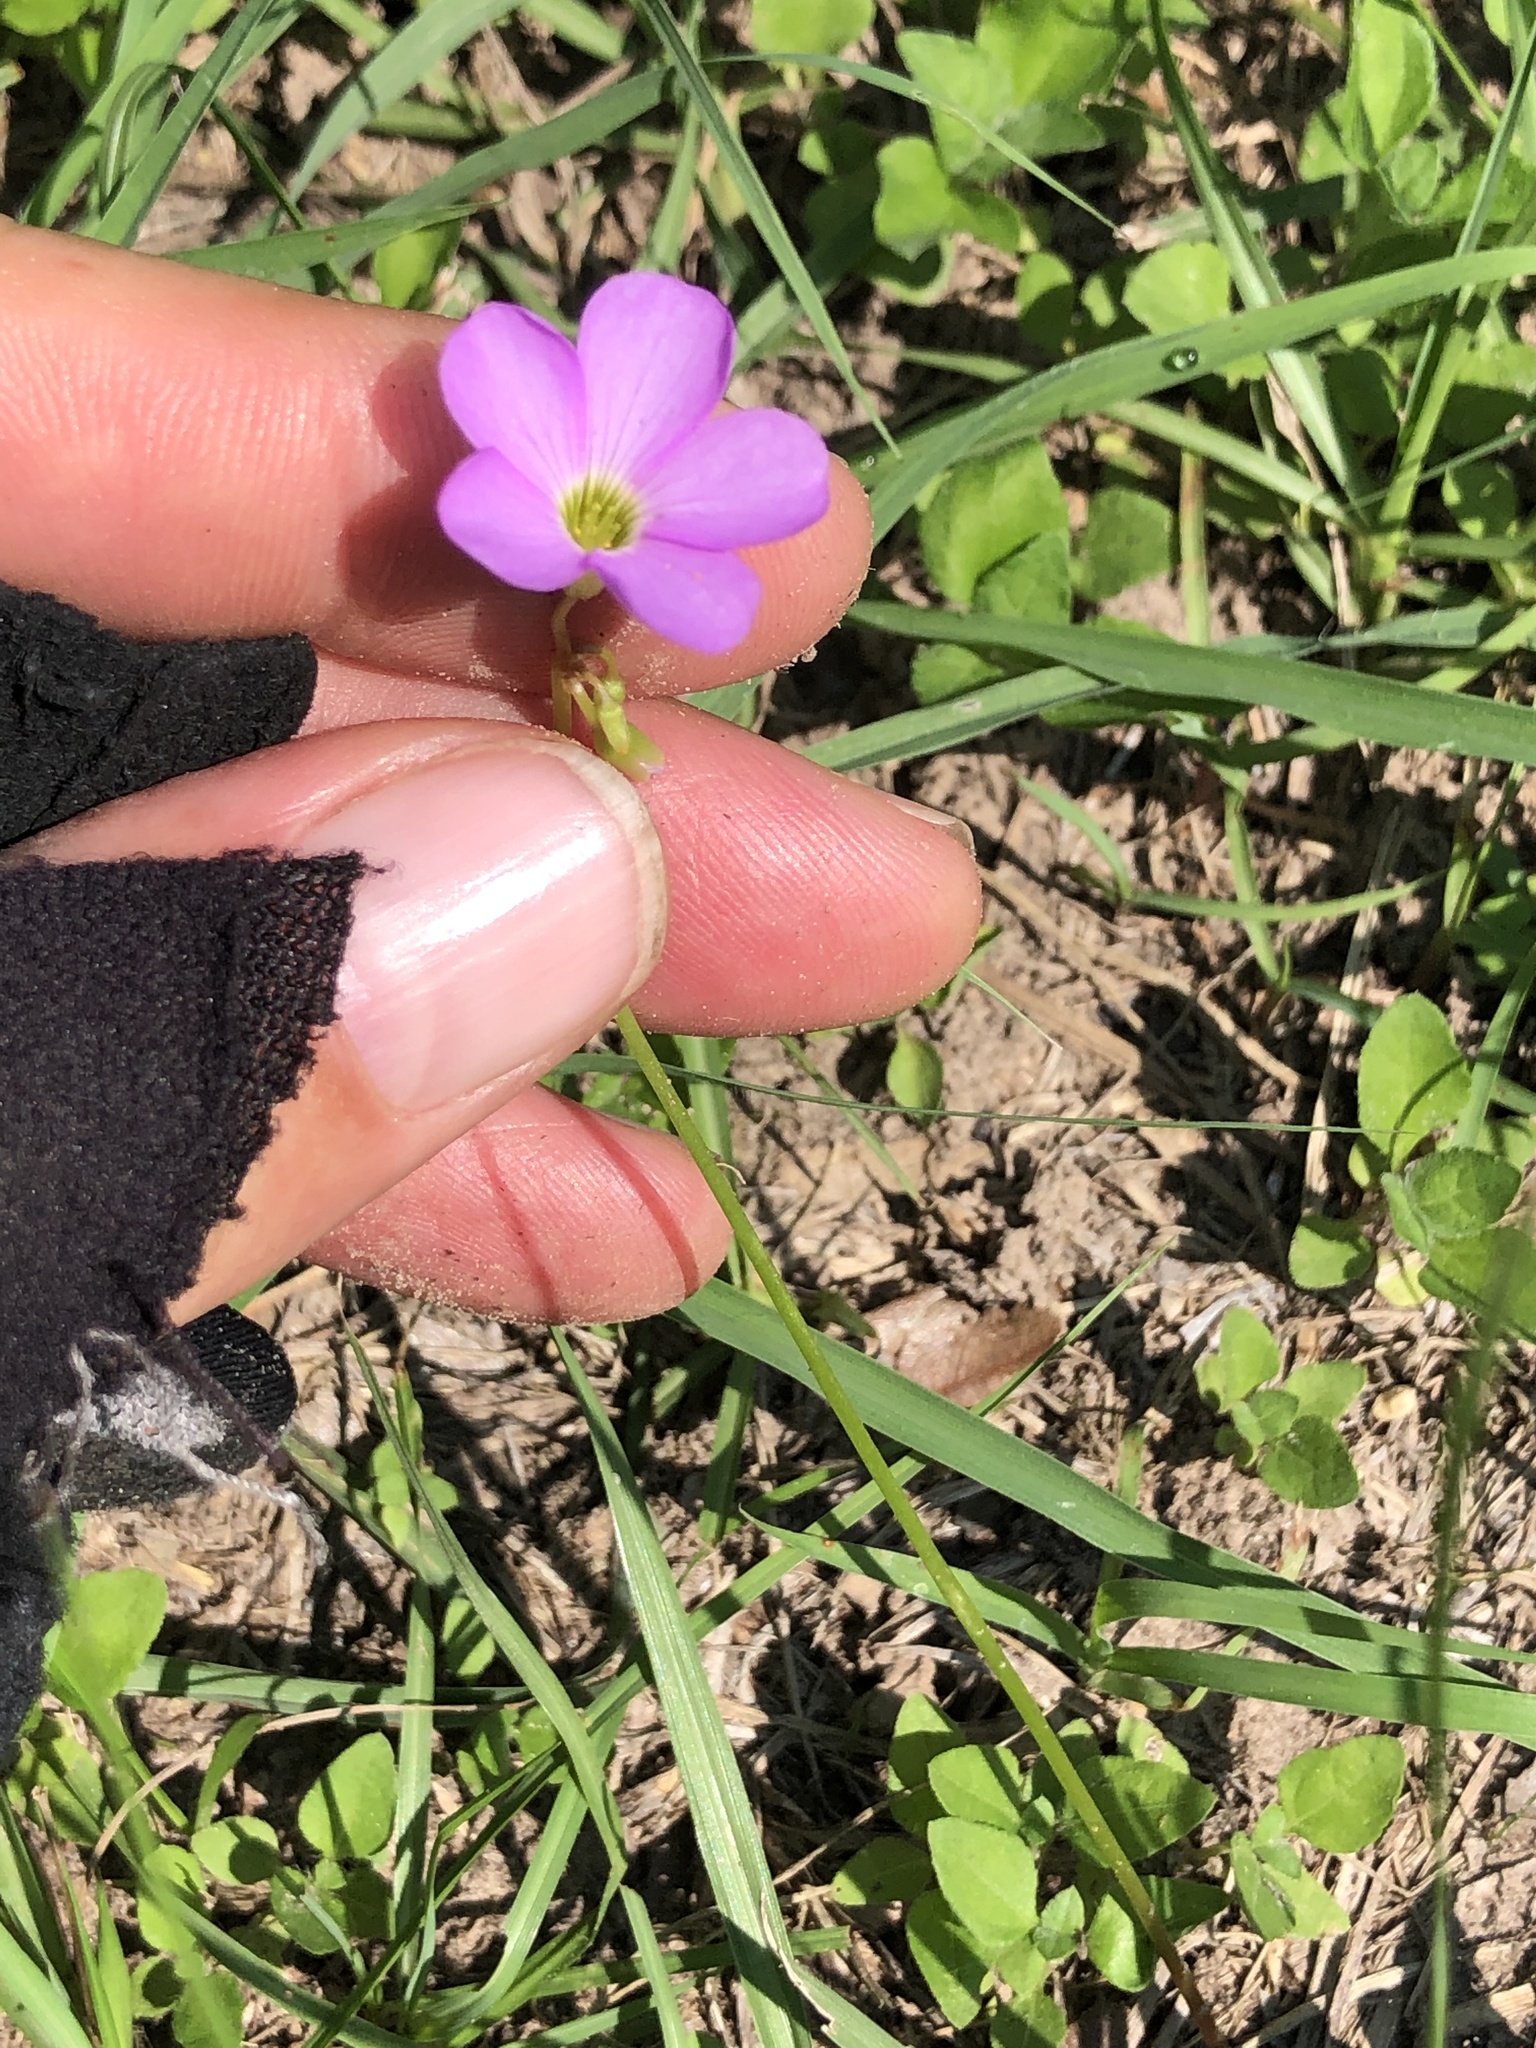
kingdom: Plantae
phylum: Tracheophyta
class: Magnoliopsida
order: Oxalidales
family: Oxalidaceae
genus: Oxalis
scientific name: Oxalis violacea
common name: Violet wood-sorrel
